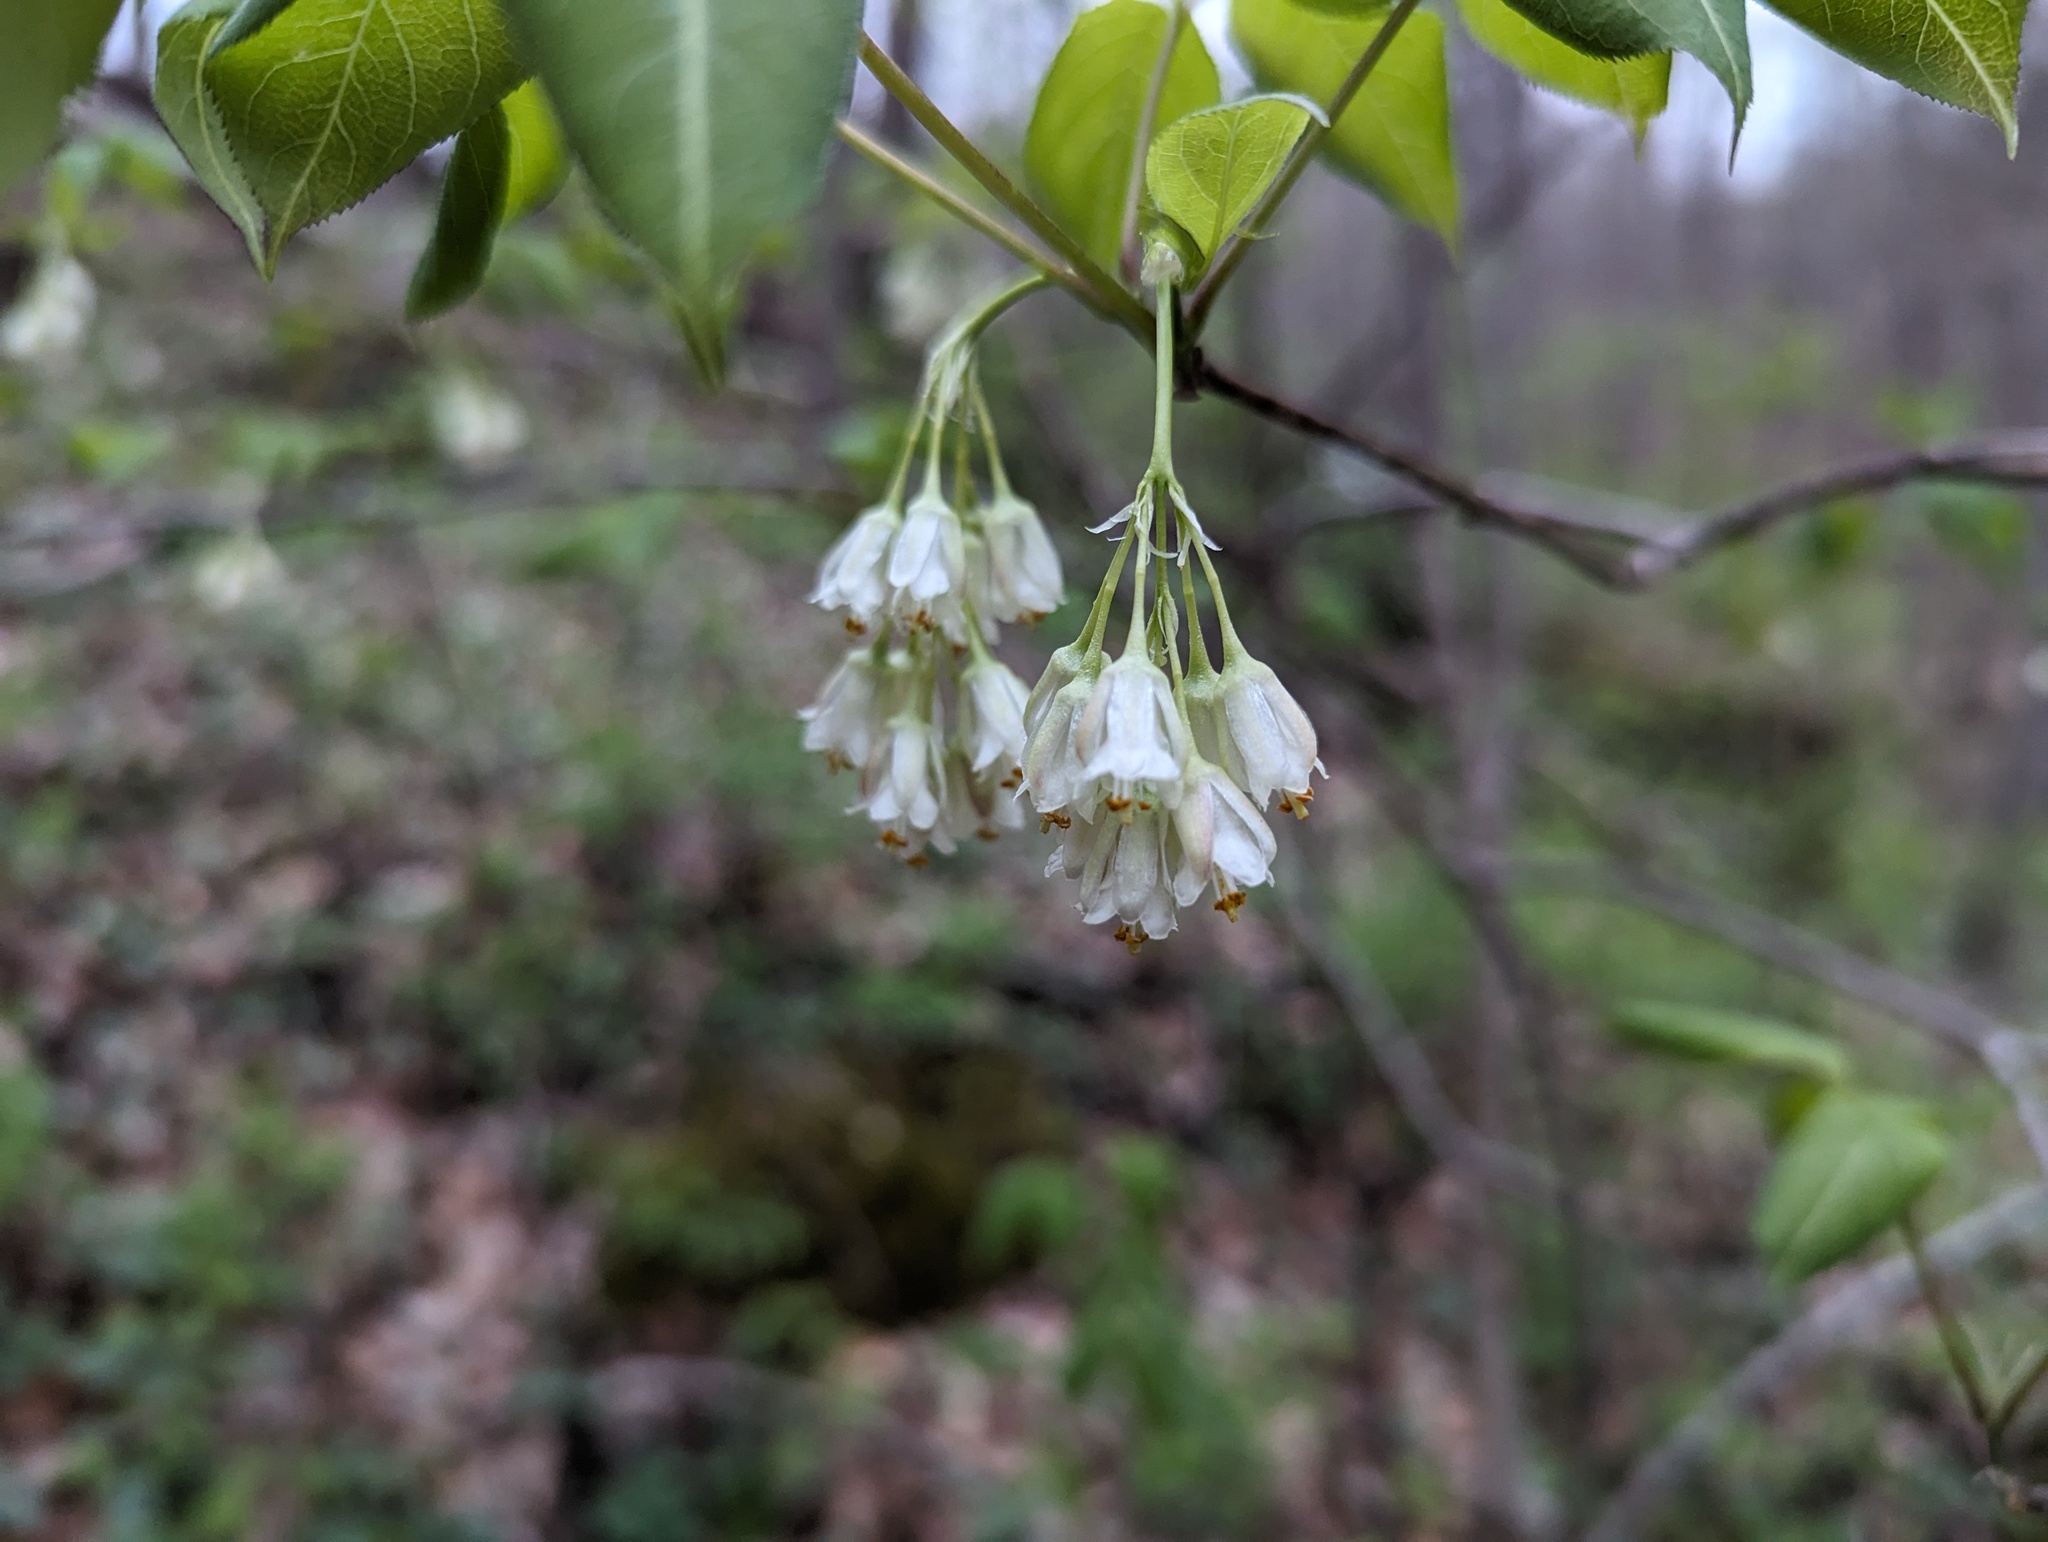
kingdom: Plantae
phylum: Tracheophyta
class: Magnoliopsida
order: Crossosomatales
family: Staphyleaceae
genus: Staphylea
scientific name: Staphylea trifolia
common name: American bladdernut
